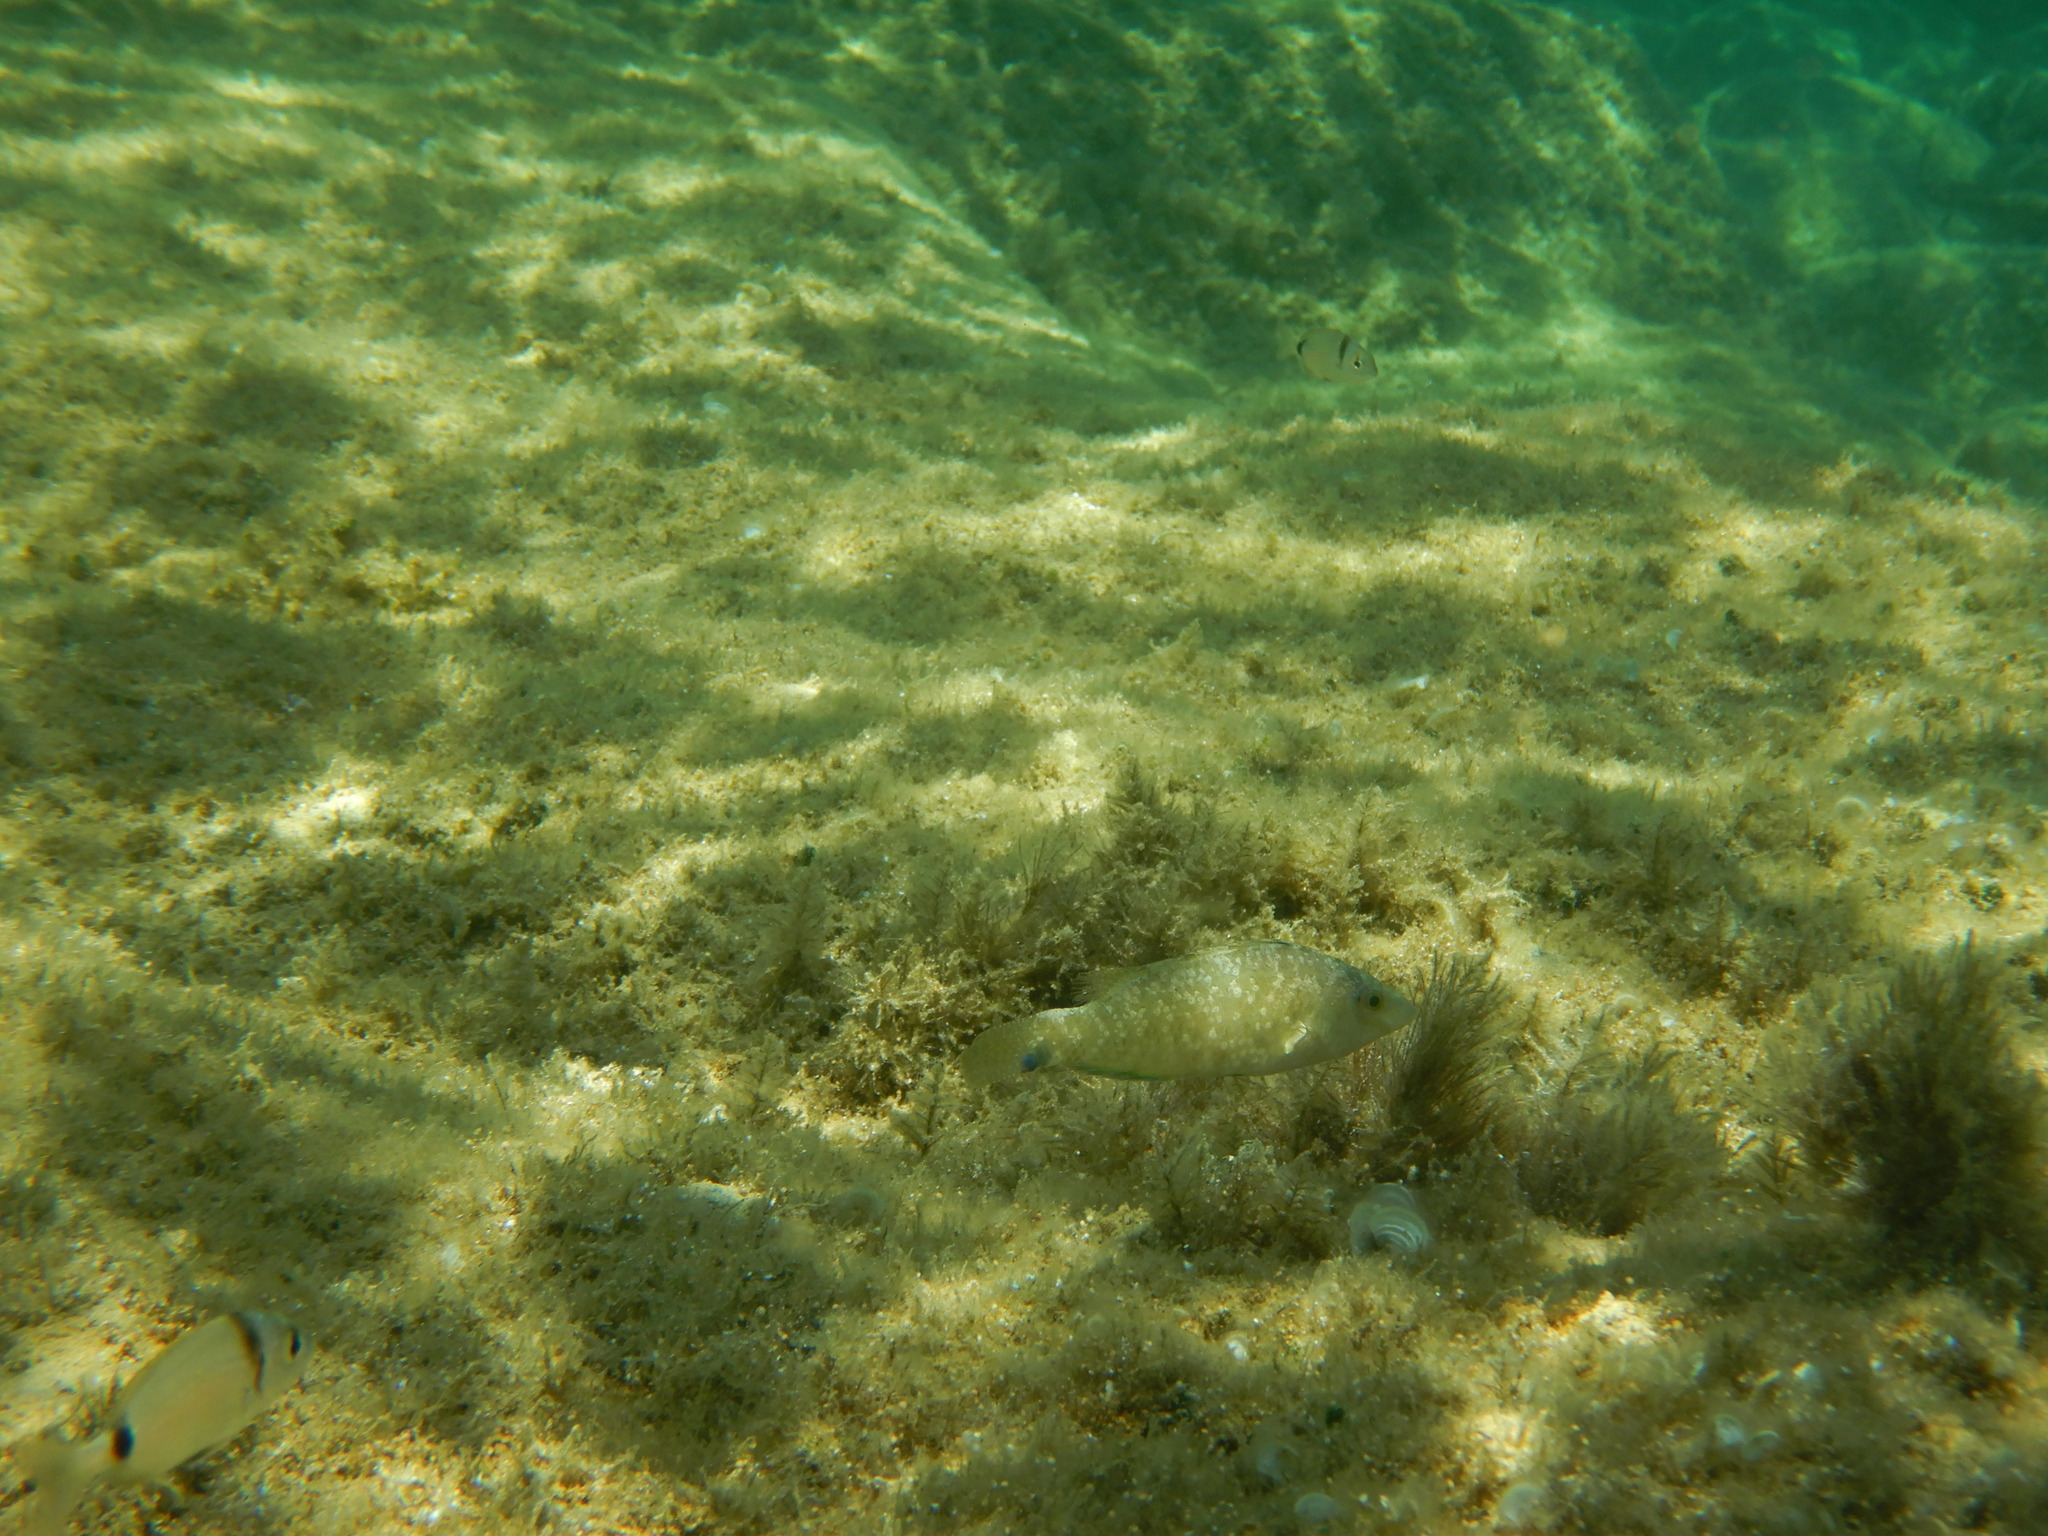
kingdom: Animalia
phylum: Chordata
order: Perciformes
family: Labridae
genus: Symphodus
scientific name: Symphodus cinereus
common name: Grey wrasse
